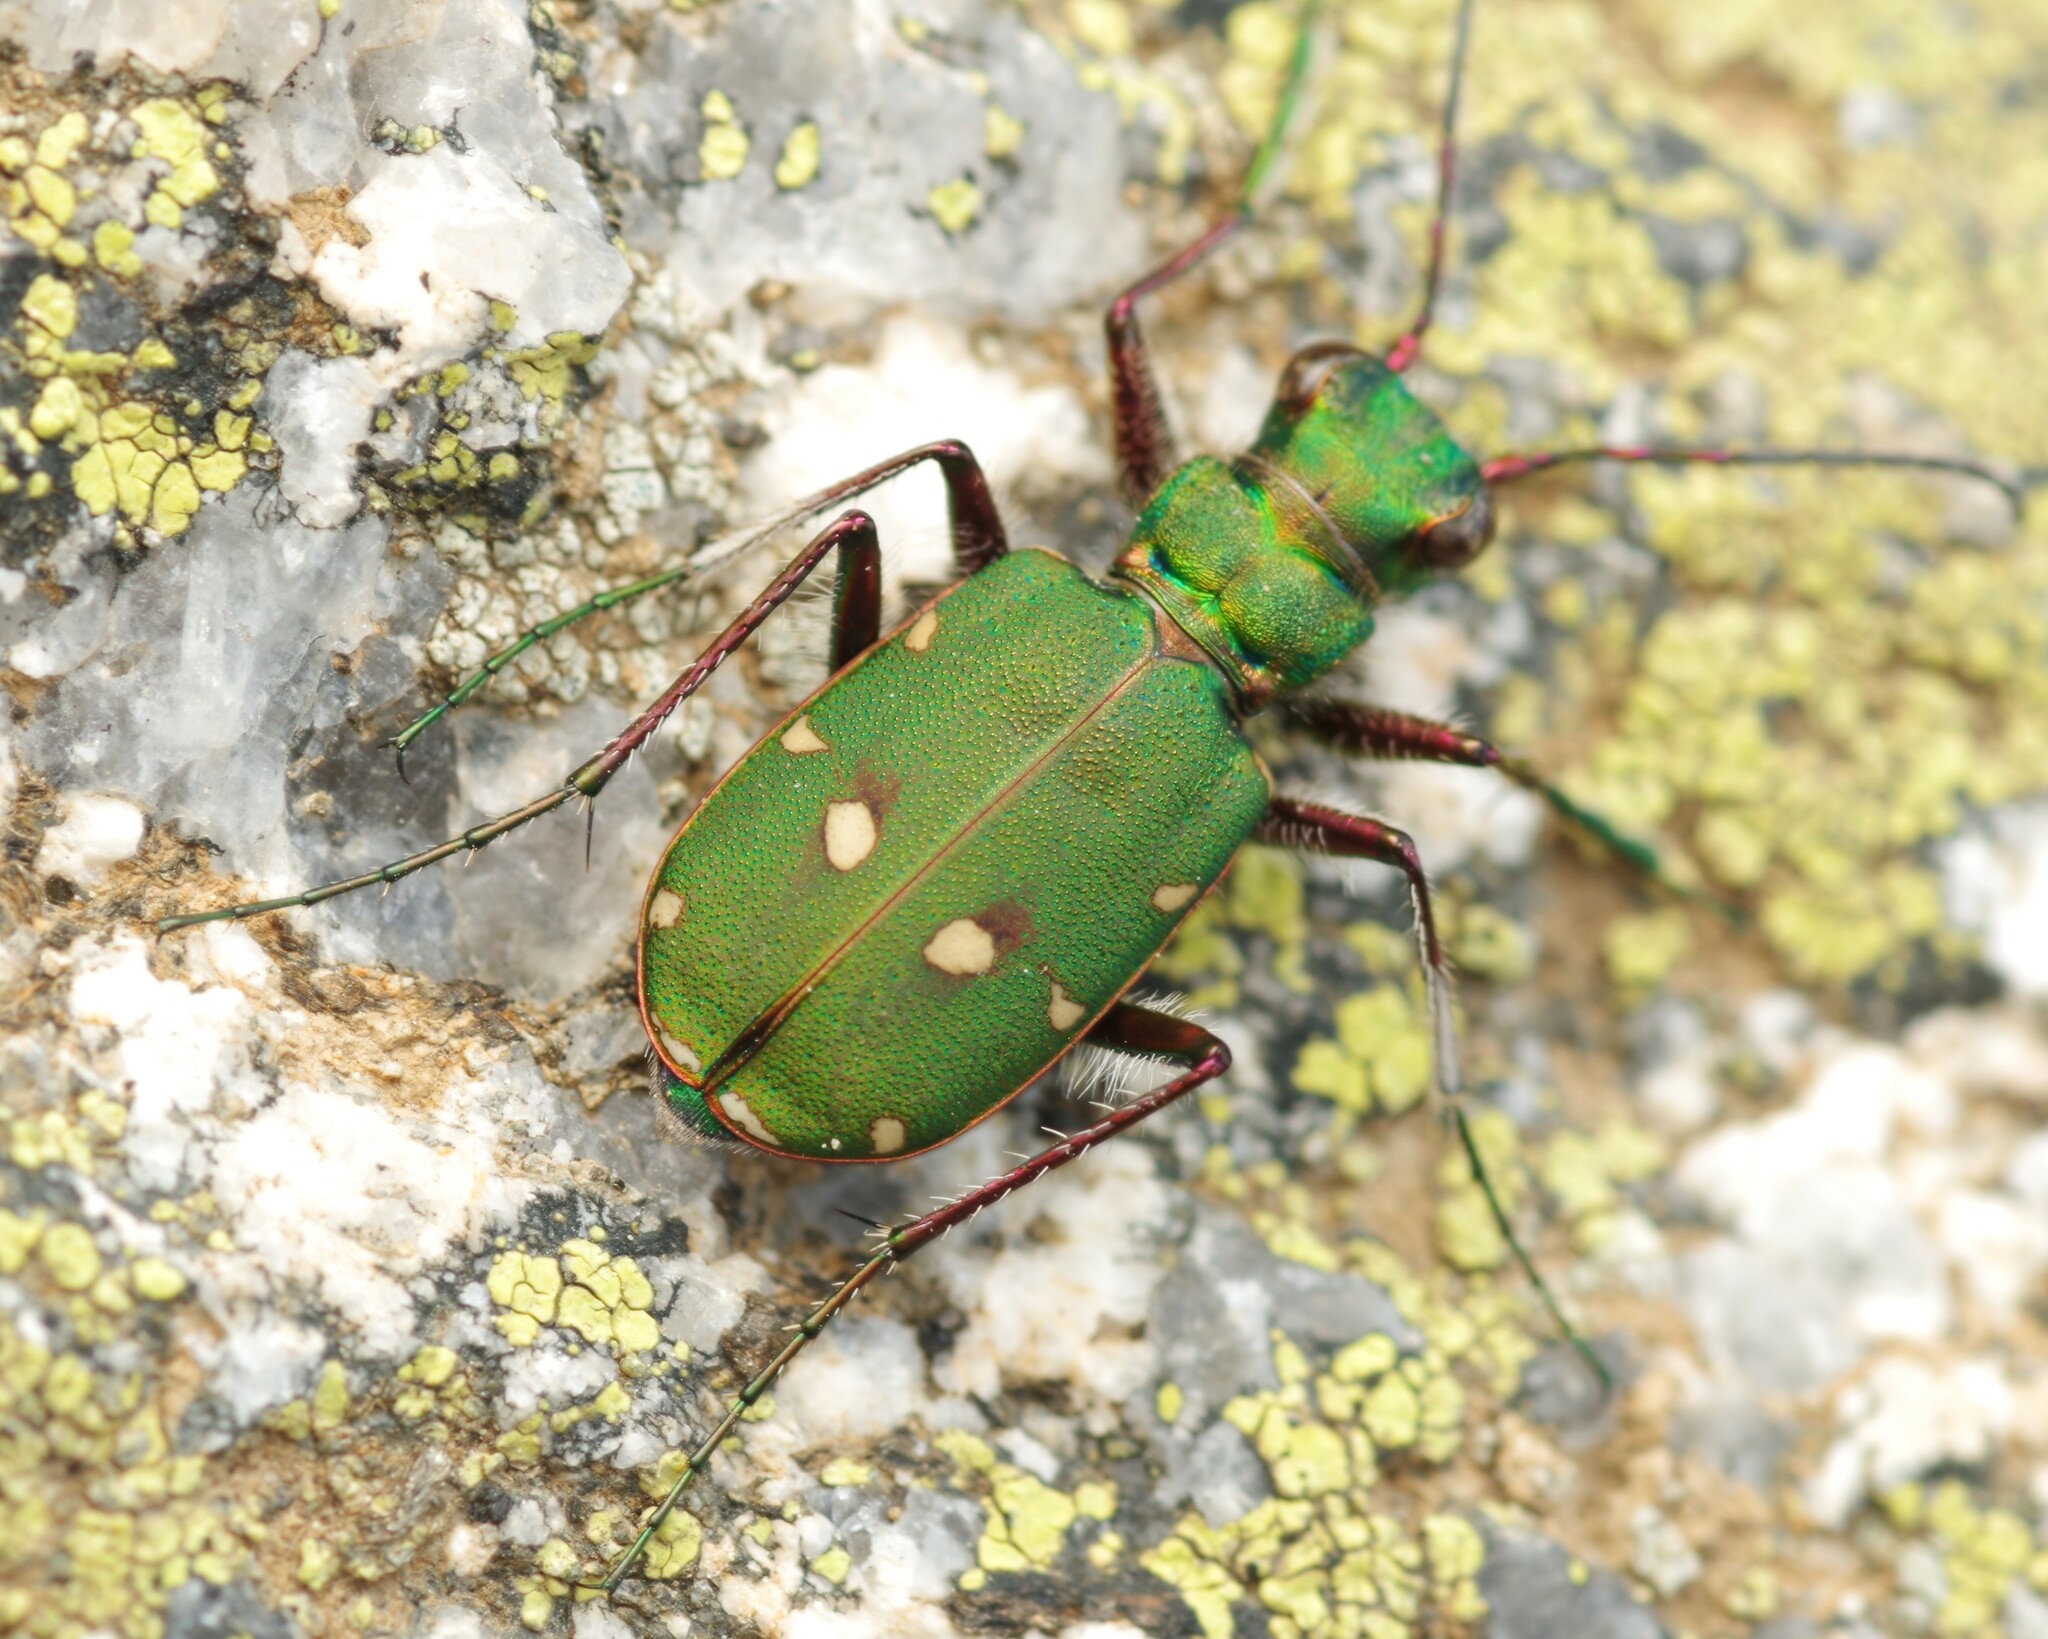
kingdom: Animalia
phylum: Arthropoda
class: Insecta
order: Coleoptera
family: Carabidae
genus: Cicindela
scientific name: Cicindela campestris
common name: Common tiger beetle
